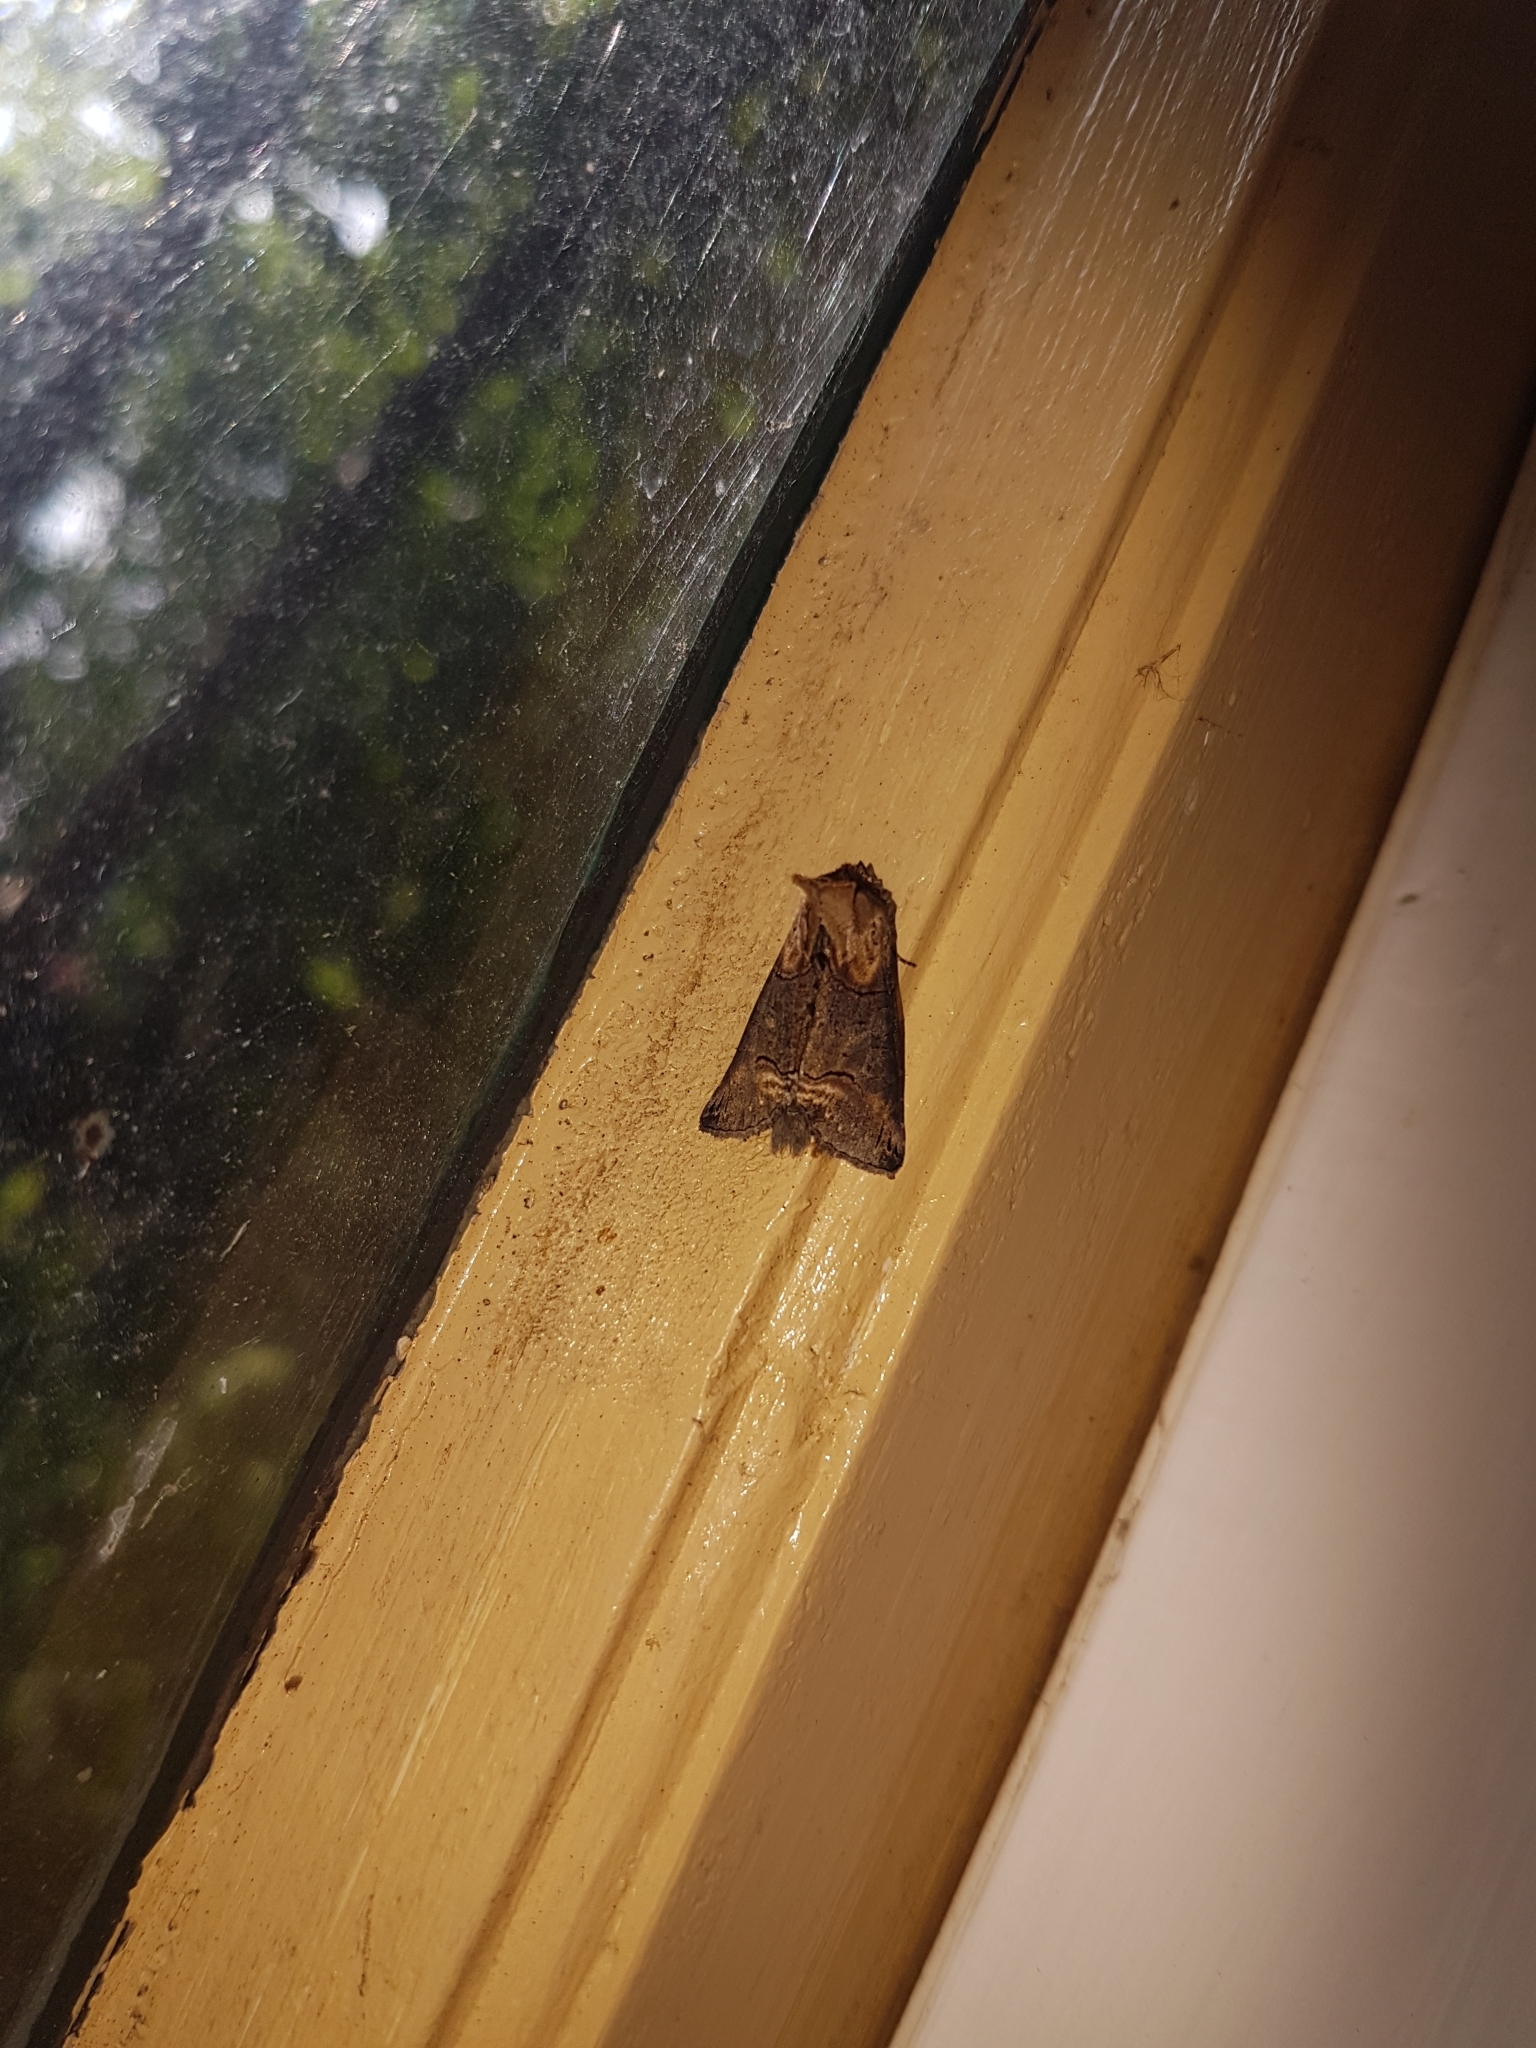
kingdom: Animalia
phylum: Arthropoda
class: Insecta
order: Lepidoptera
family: Noctuidae
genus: Abrostola
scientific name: Abrostola triplasia
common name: Dark spectacle
